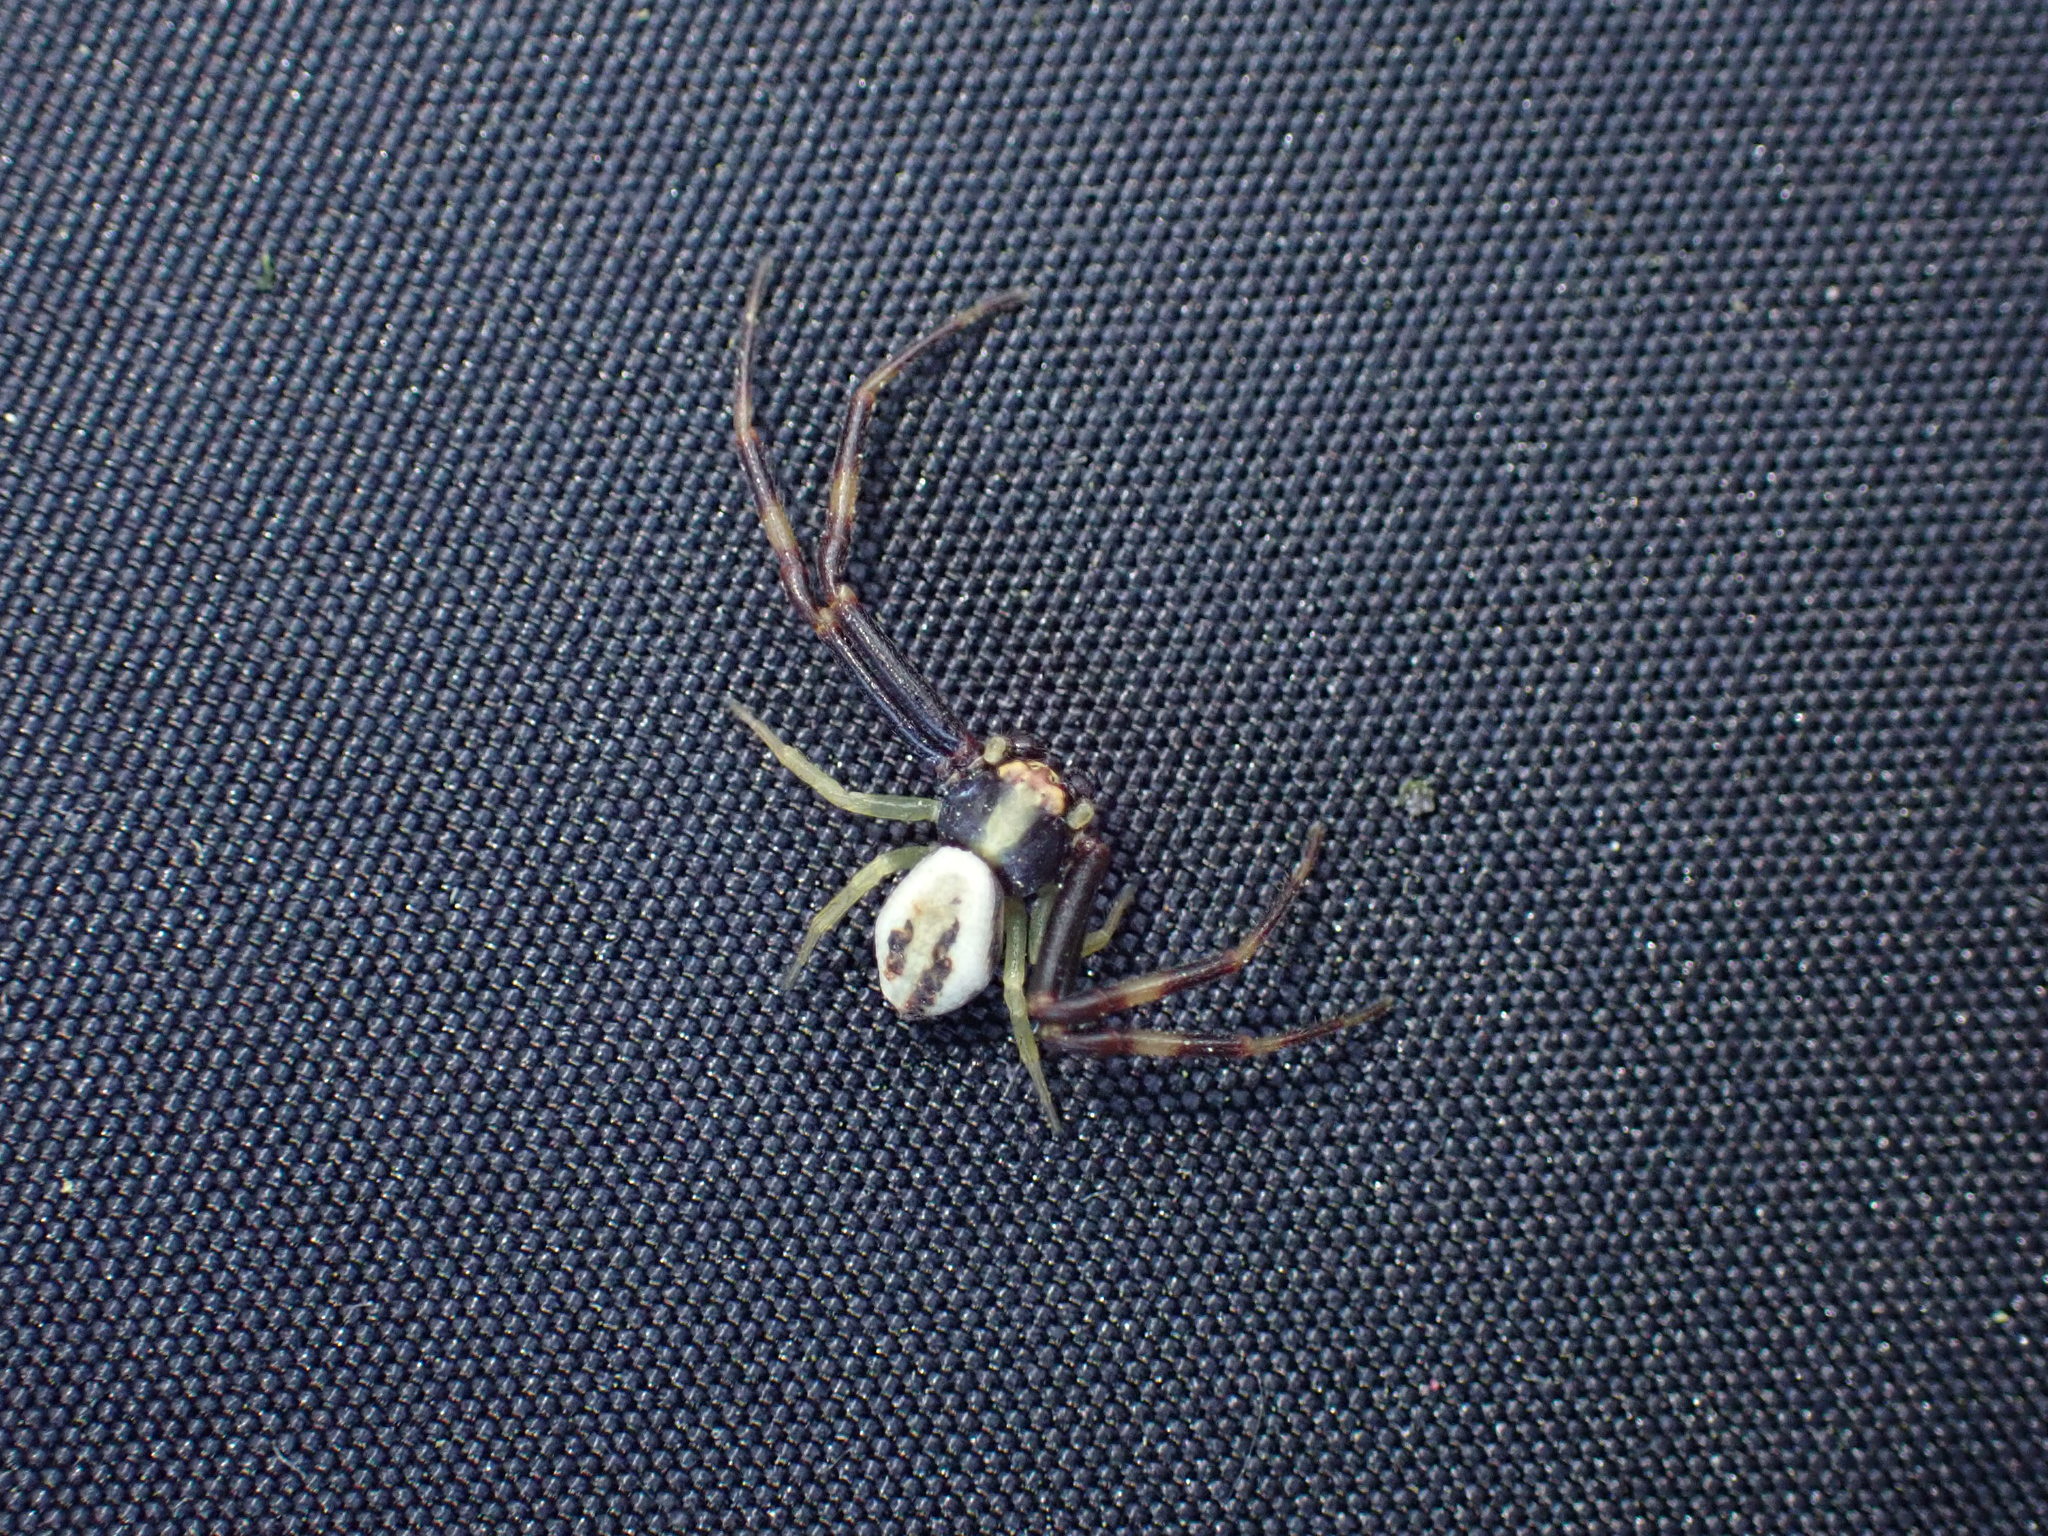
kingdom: Animalia
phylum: Arthropoda
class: Arachnida
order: Araneae
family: Thomisidae
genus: Misumena
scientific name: Misumena vatia
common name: Goldenrod crab spider
